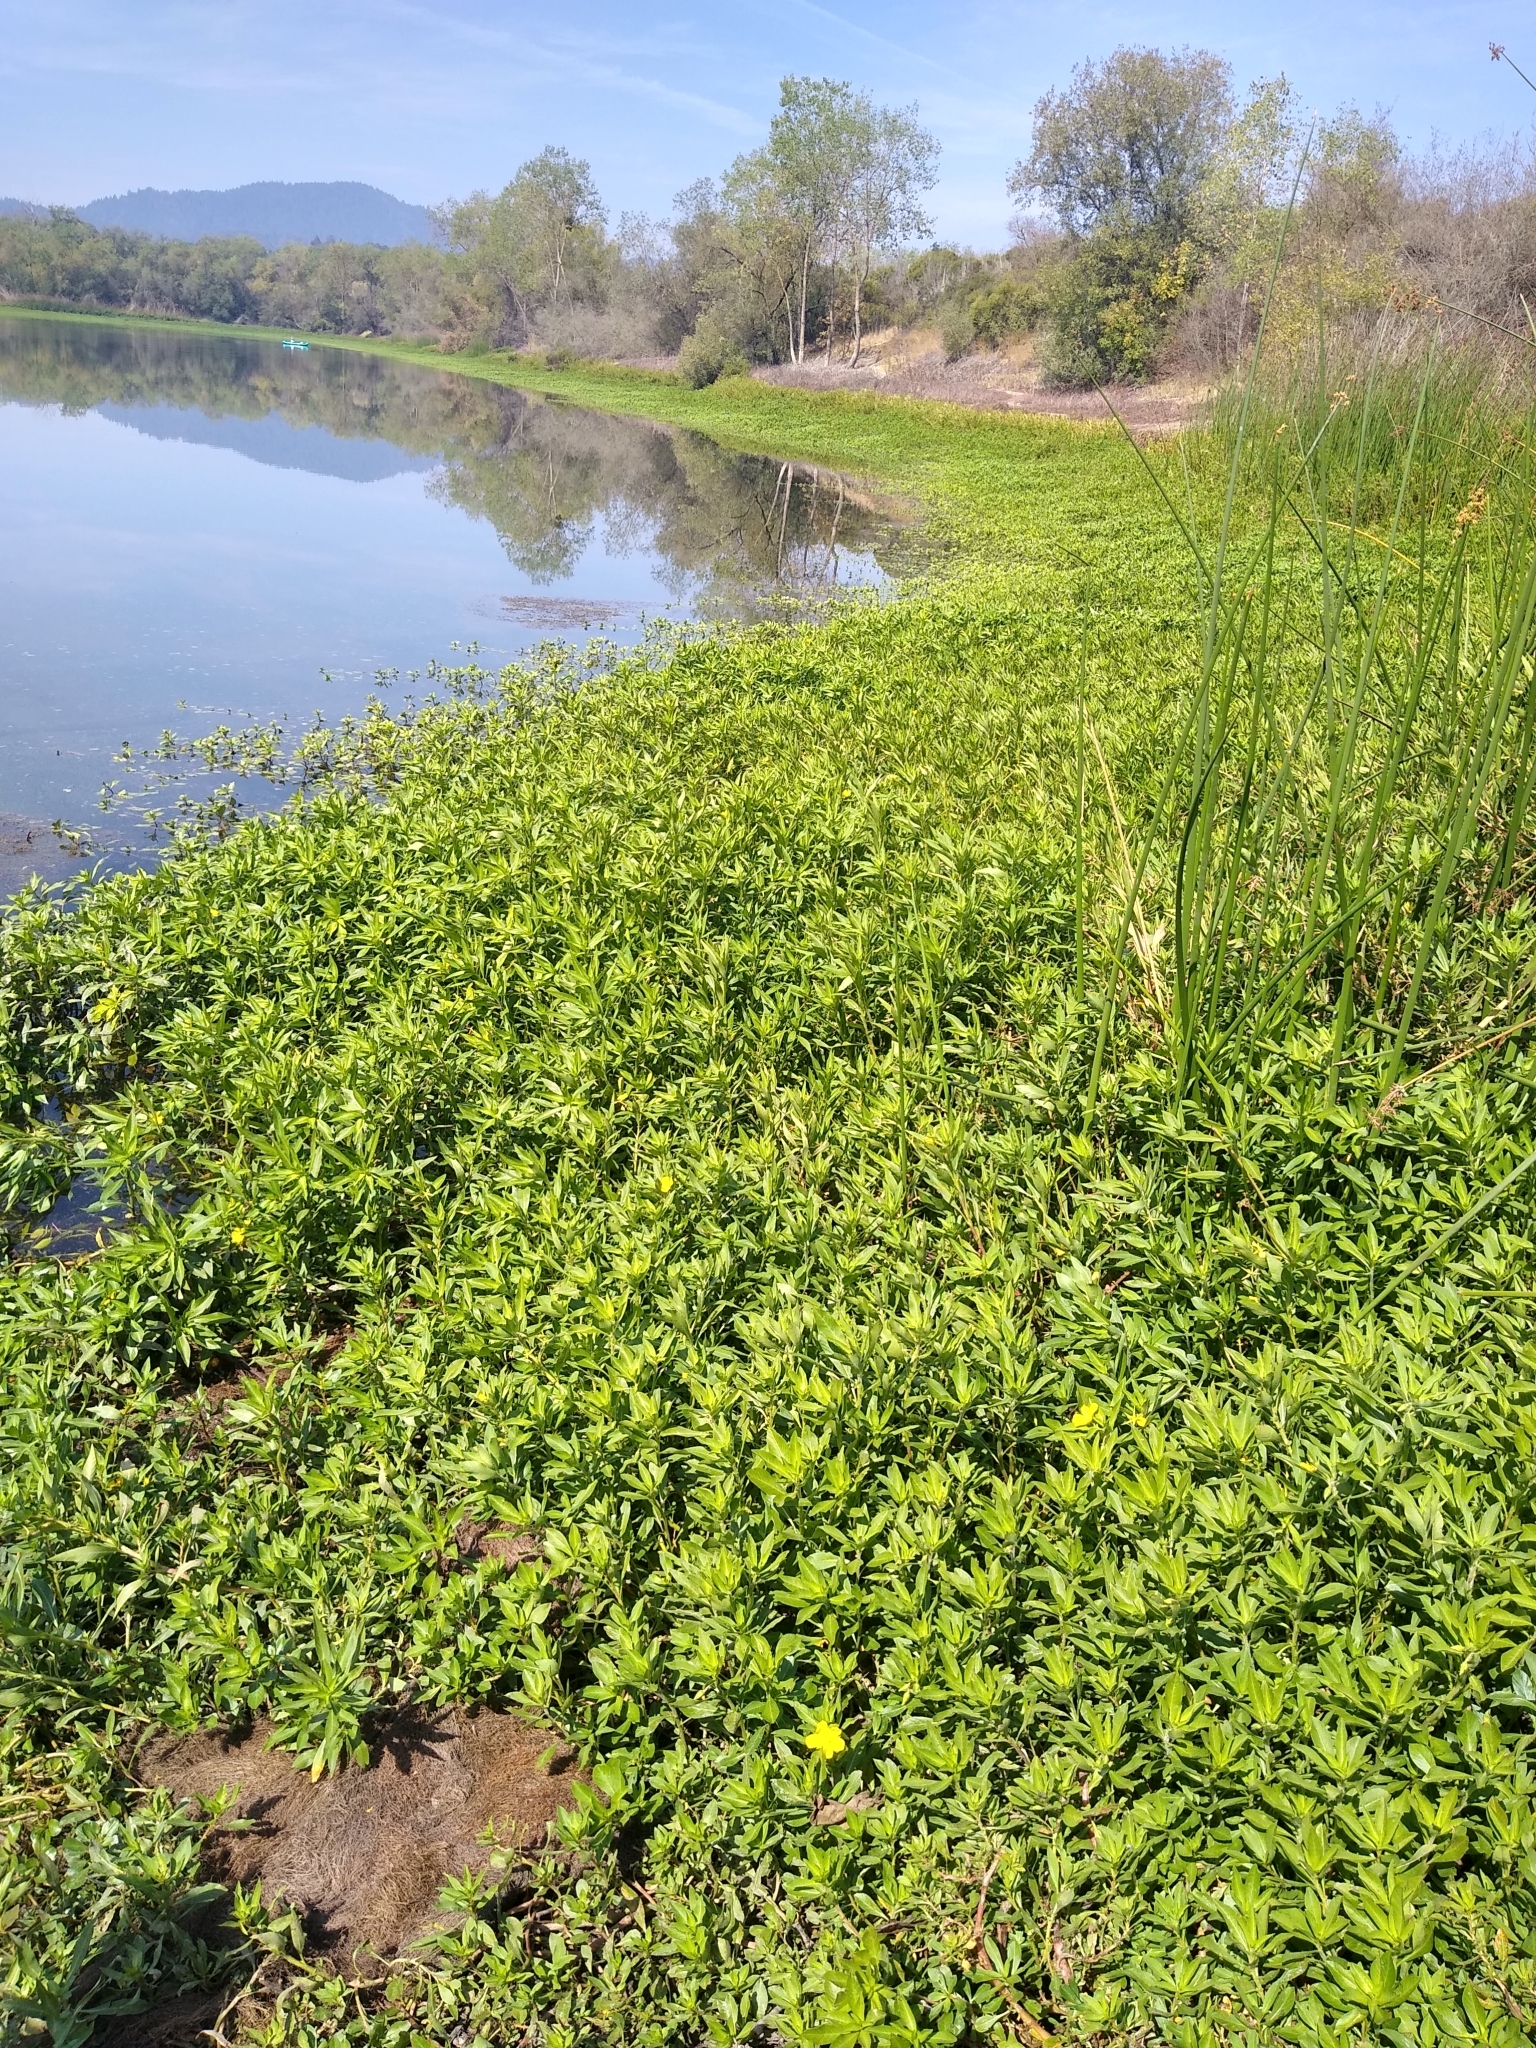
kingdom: Plantae
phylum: Tracheophyta
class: Magnoliopsida
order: Myrtales
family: Onagraceae
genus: Ludwigia
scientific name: Ludwigia hexapetala
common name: Water-primrose
